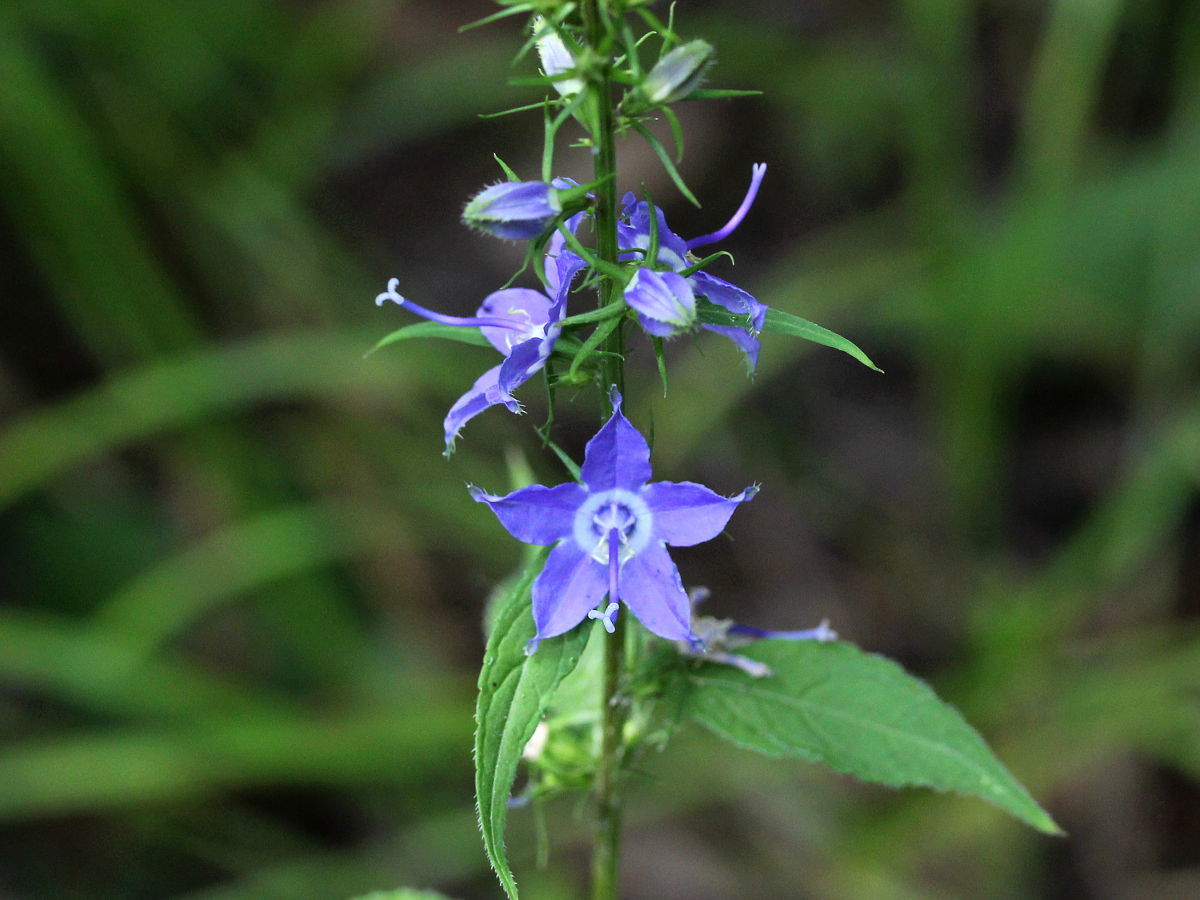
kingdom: Plantae
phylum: Tracheophyta
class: Magnoliopsida
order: Asterales
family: Campanulaceae
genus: Campanulastrum
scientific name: Campanulastrum americanum
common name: American bellflower
